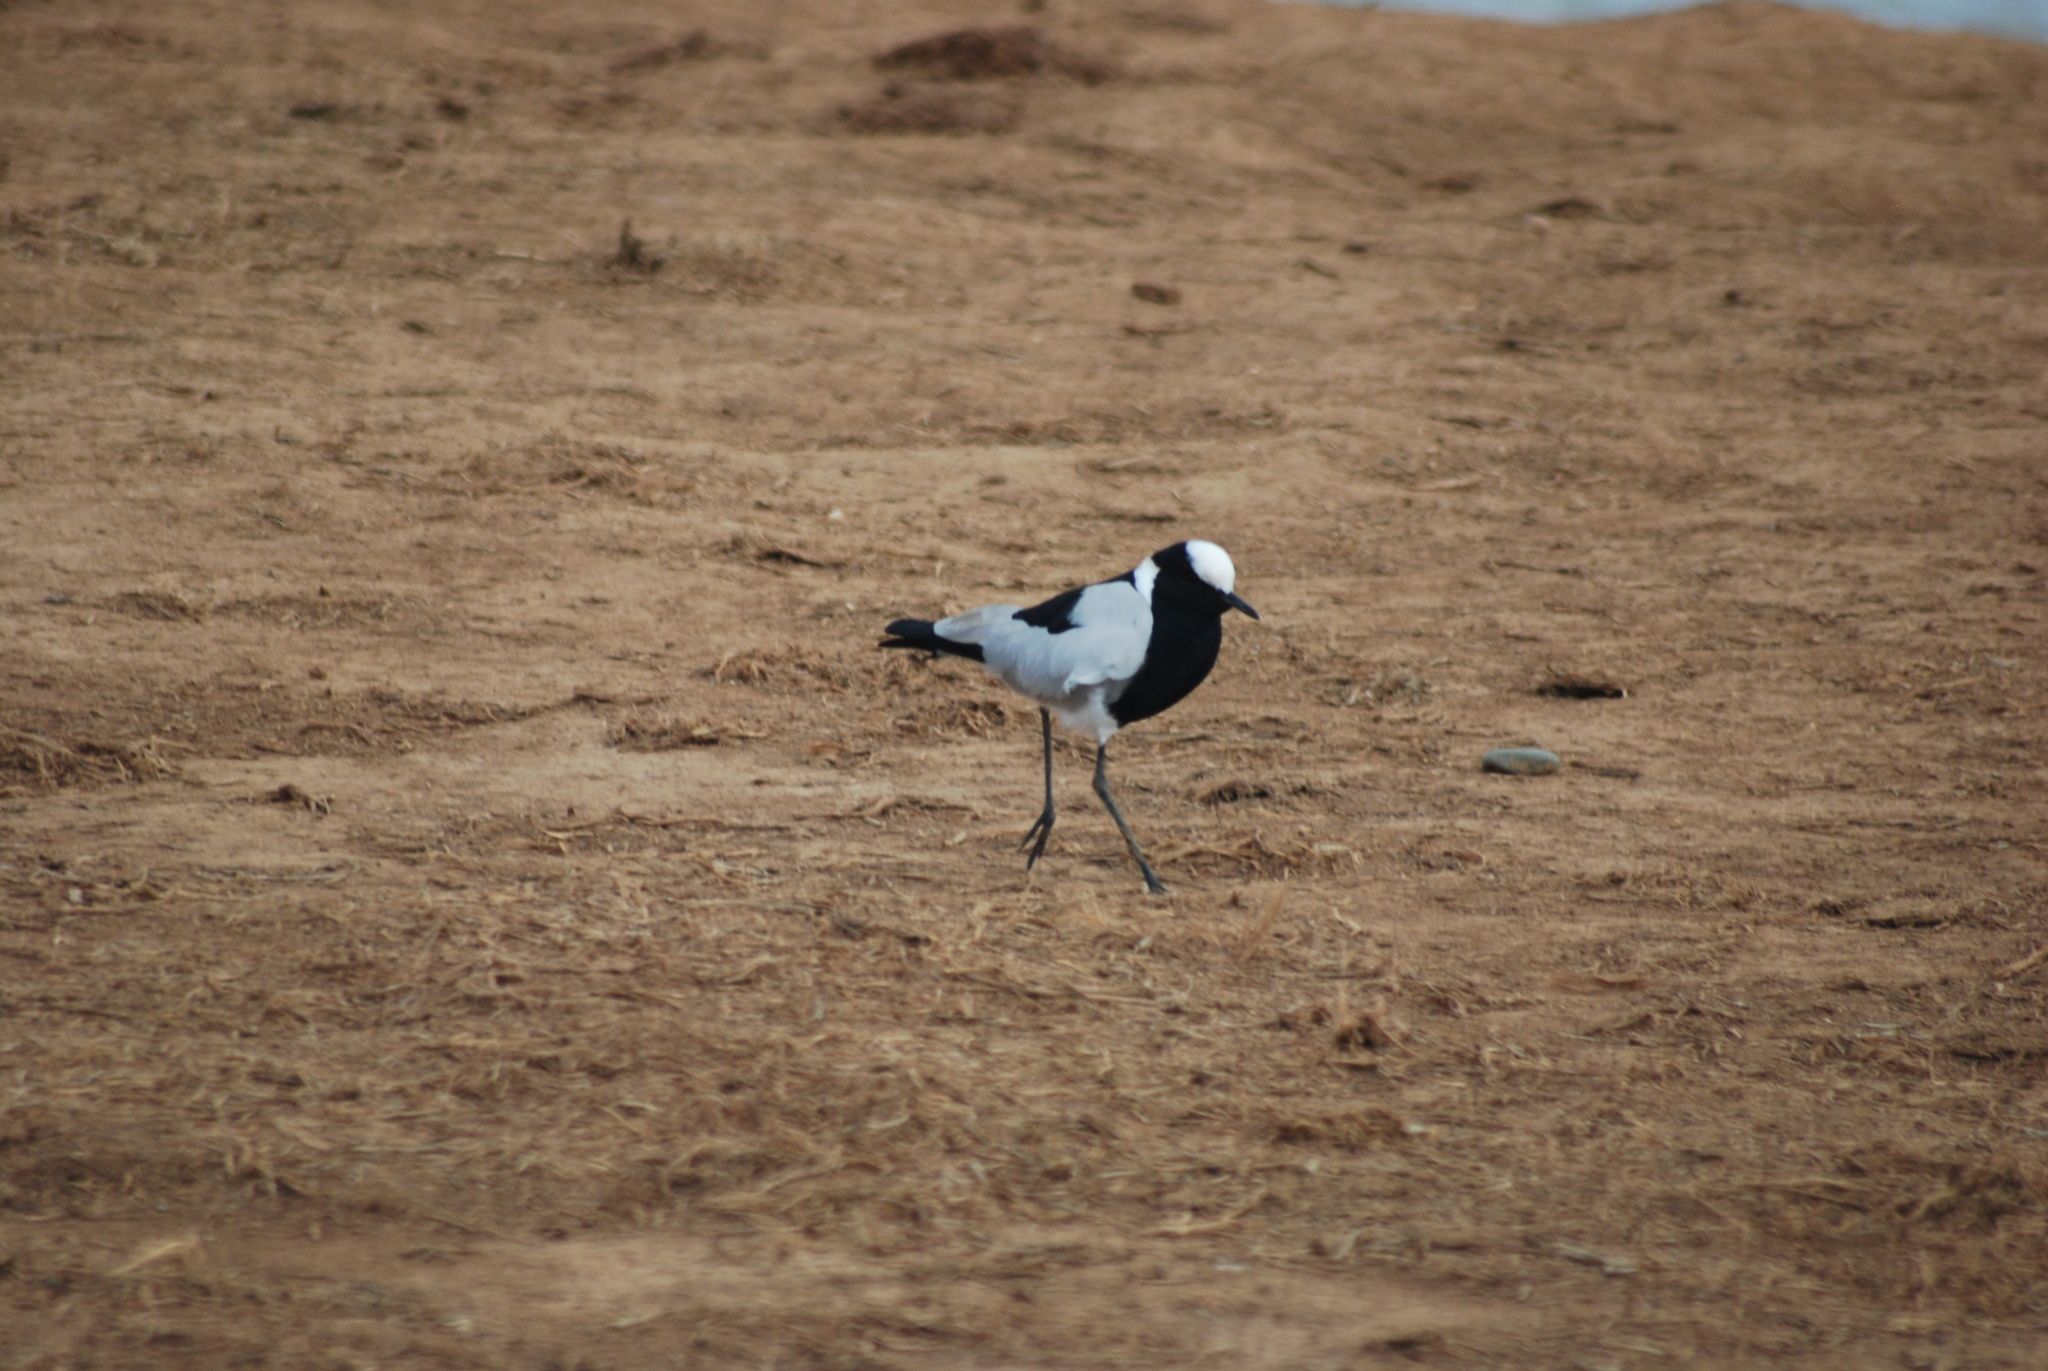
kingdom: Animalia
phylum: Chordata
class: Aves
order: Charadriiformes
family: Charadriidae
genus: Vanellus
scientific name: Vanellus armatus
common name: Blacksmith lapwing
